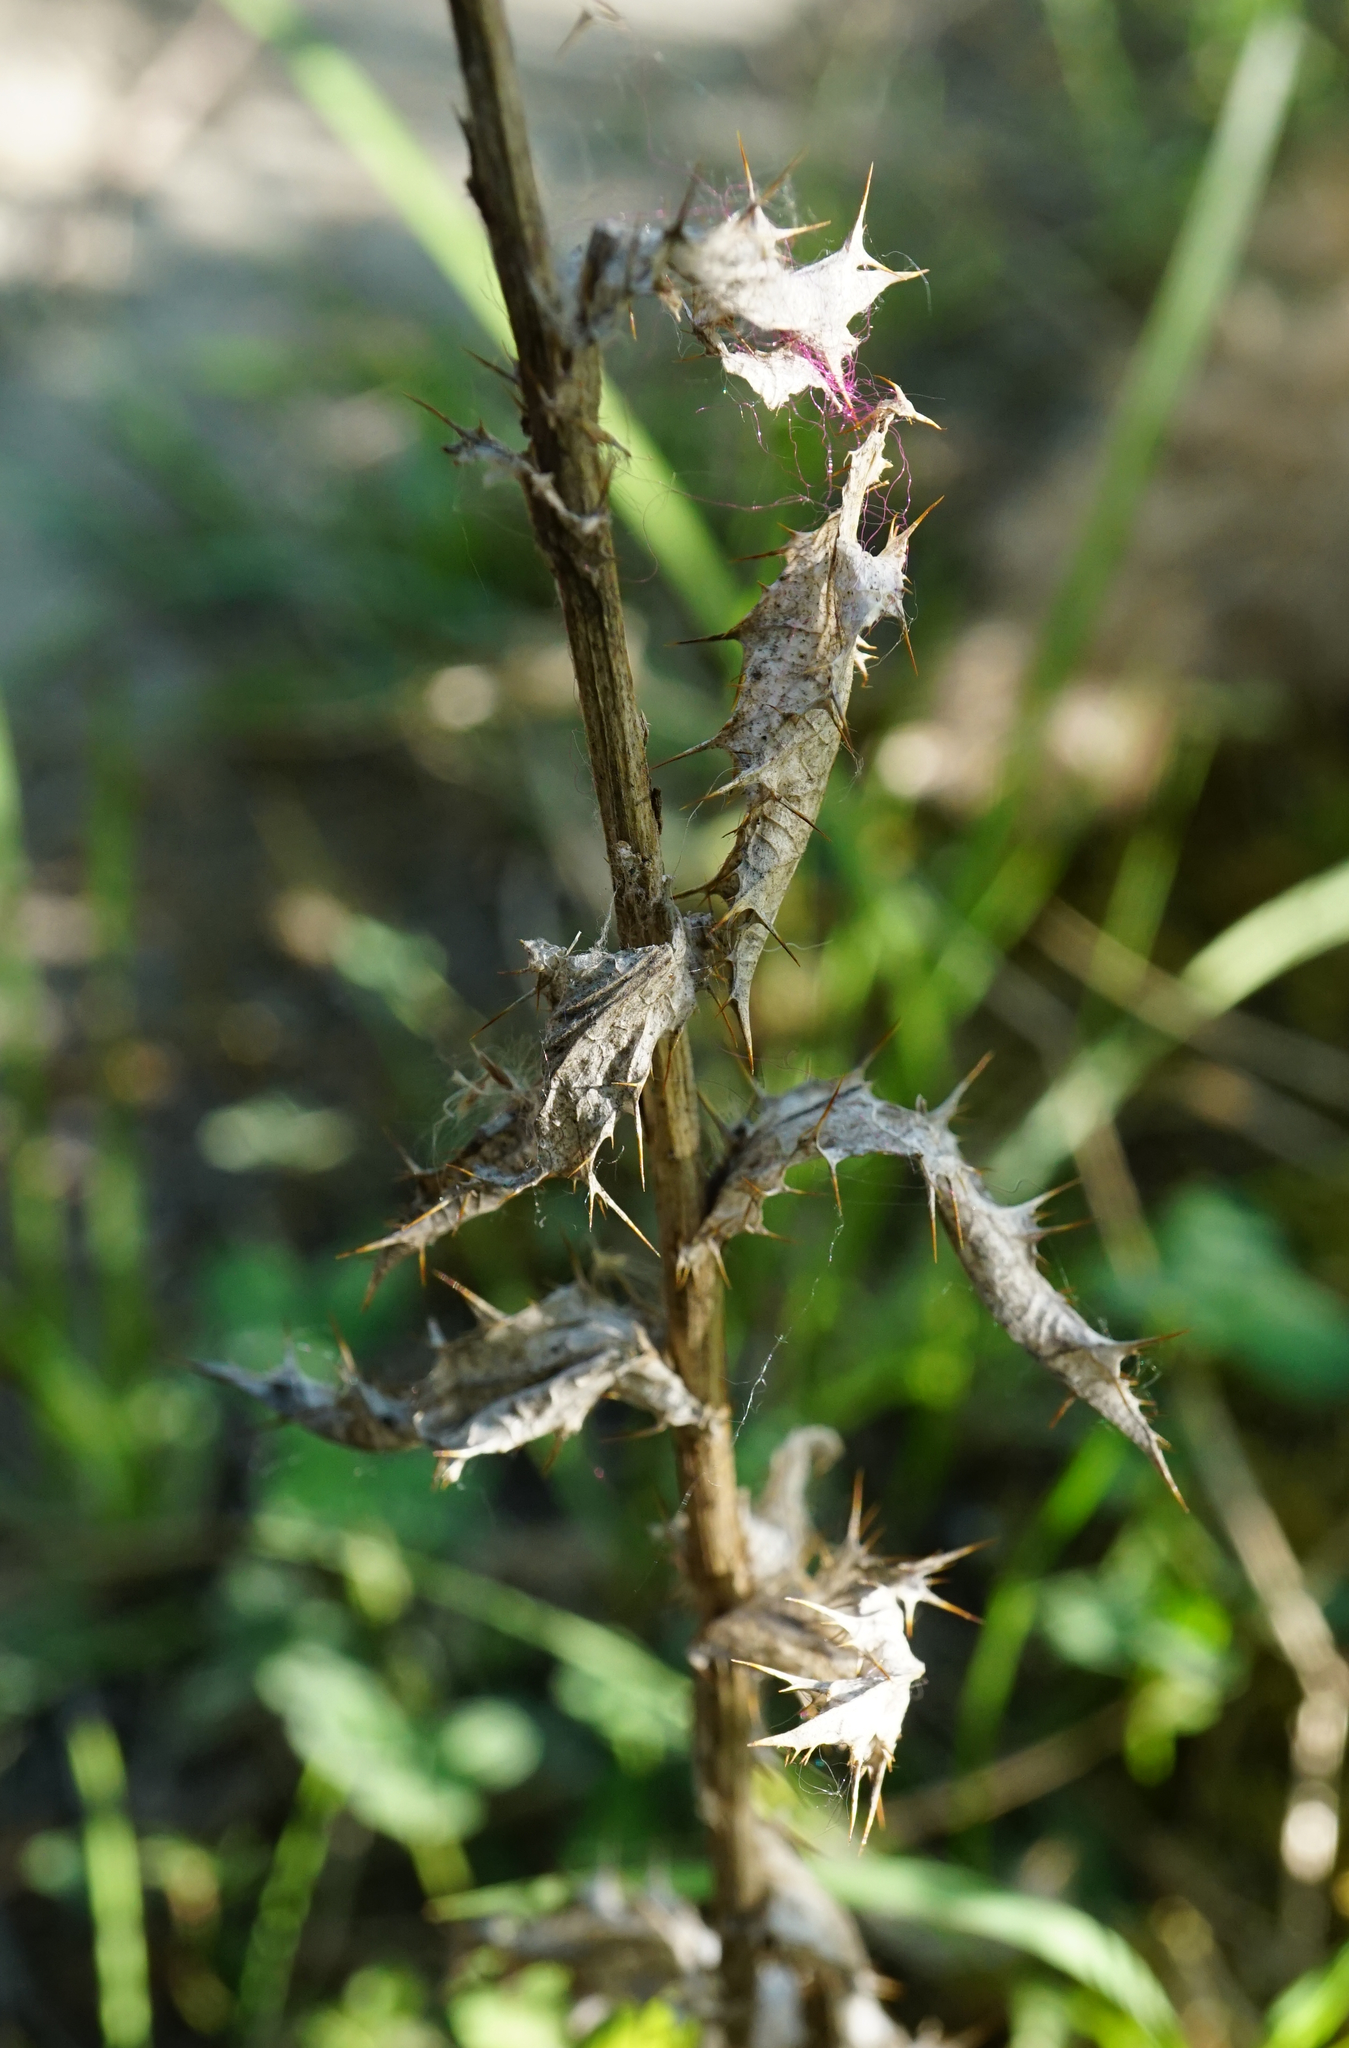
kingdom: Plantae
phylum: Tracheophyta
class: Magnoliopsida
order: Asterales
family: Asteraceae
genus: Carlina
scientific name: Carlina vulgaris
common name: Carline thistle
